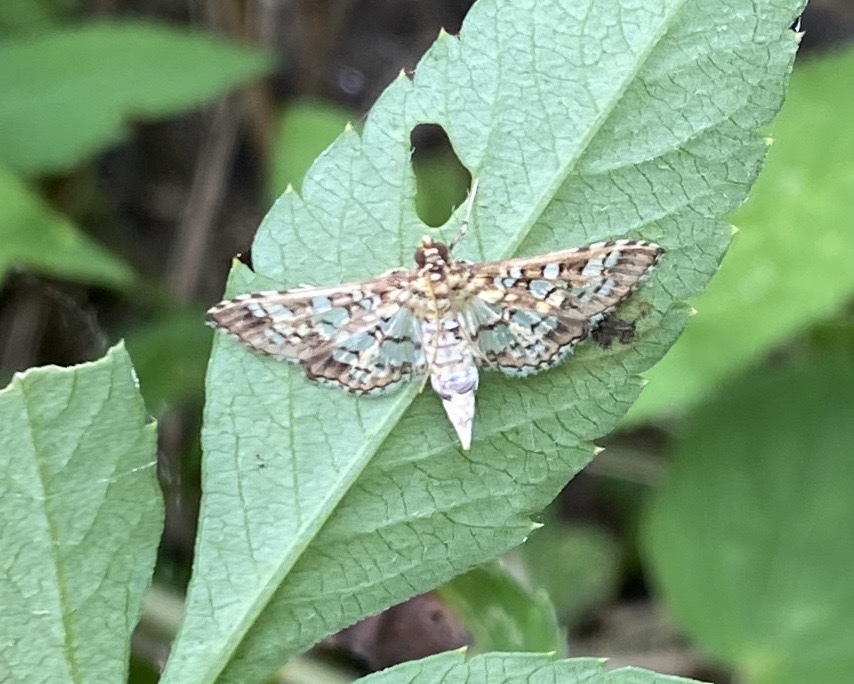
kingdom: Animalia
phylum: Arthropoda
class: Insecta
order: Lepidoptera
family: Crambidae
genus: Samea
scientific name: Samea ecclesialis
